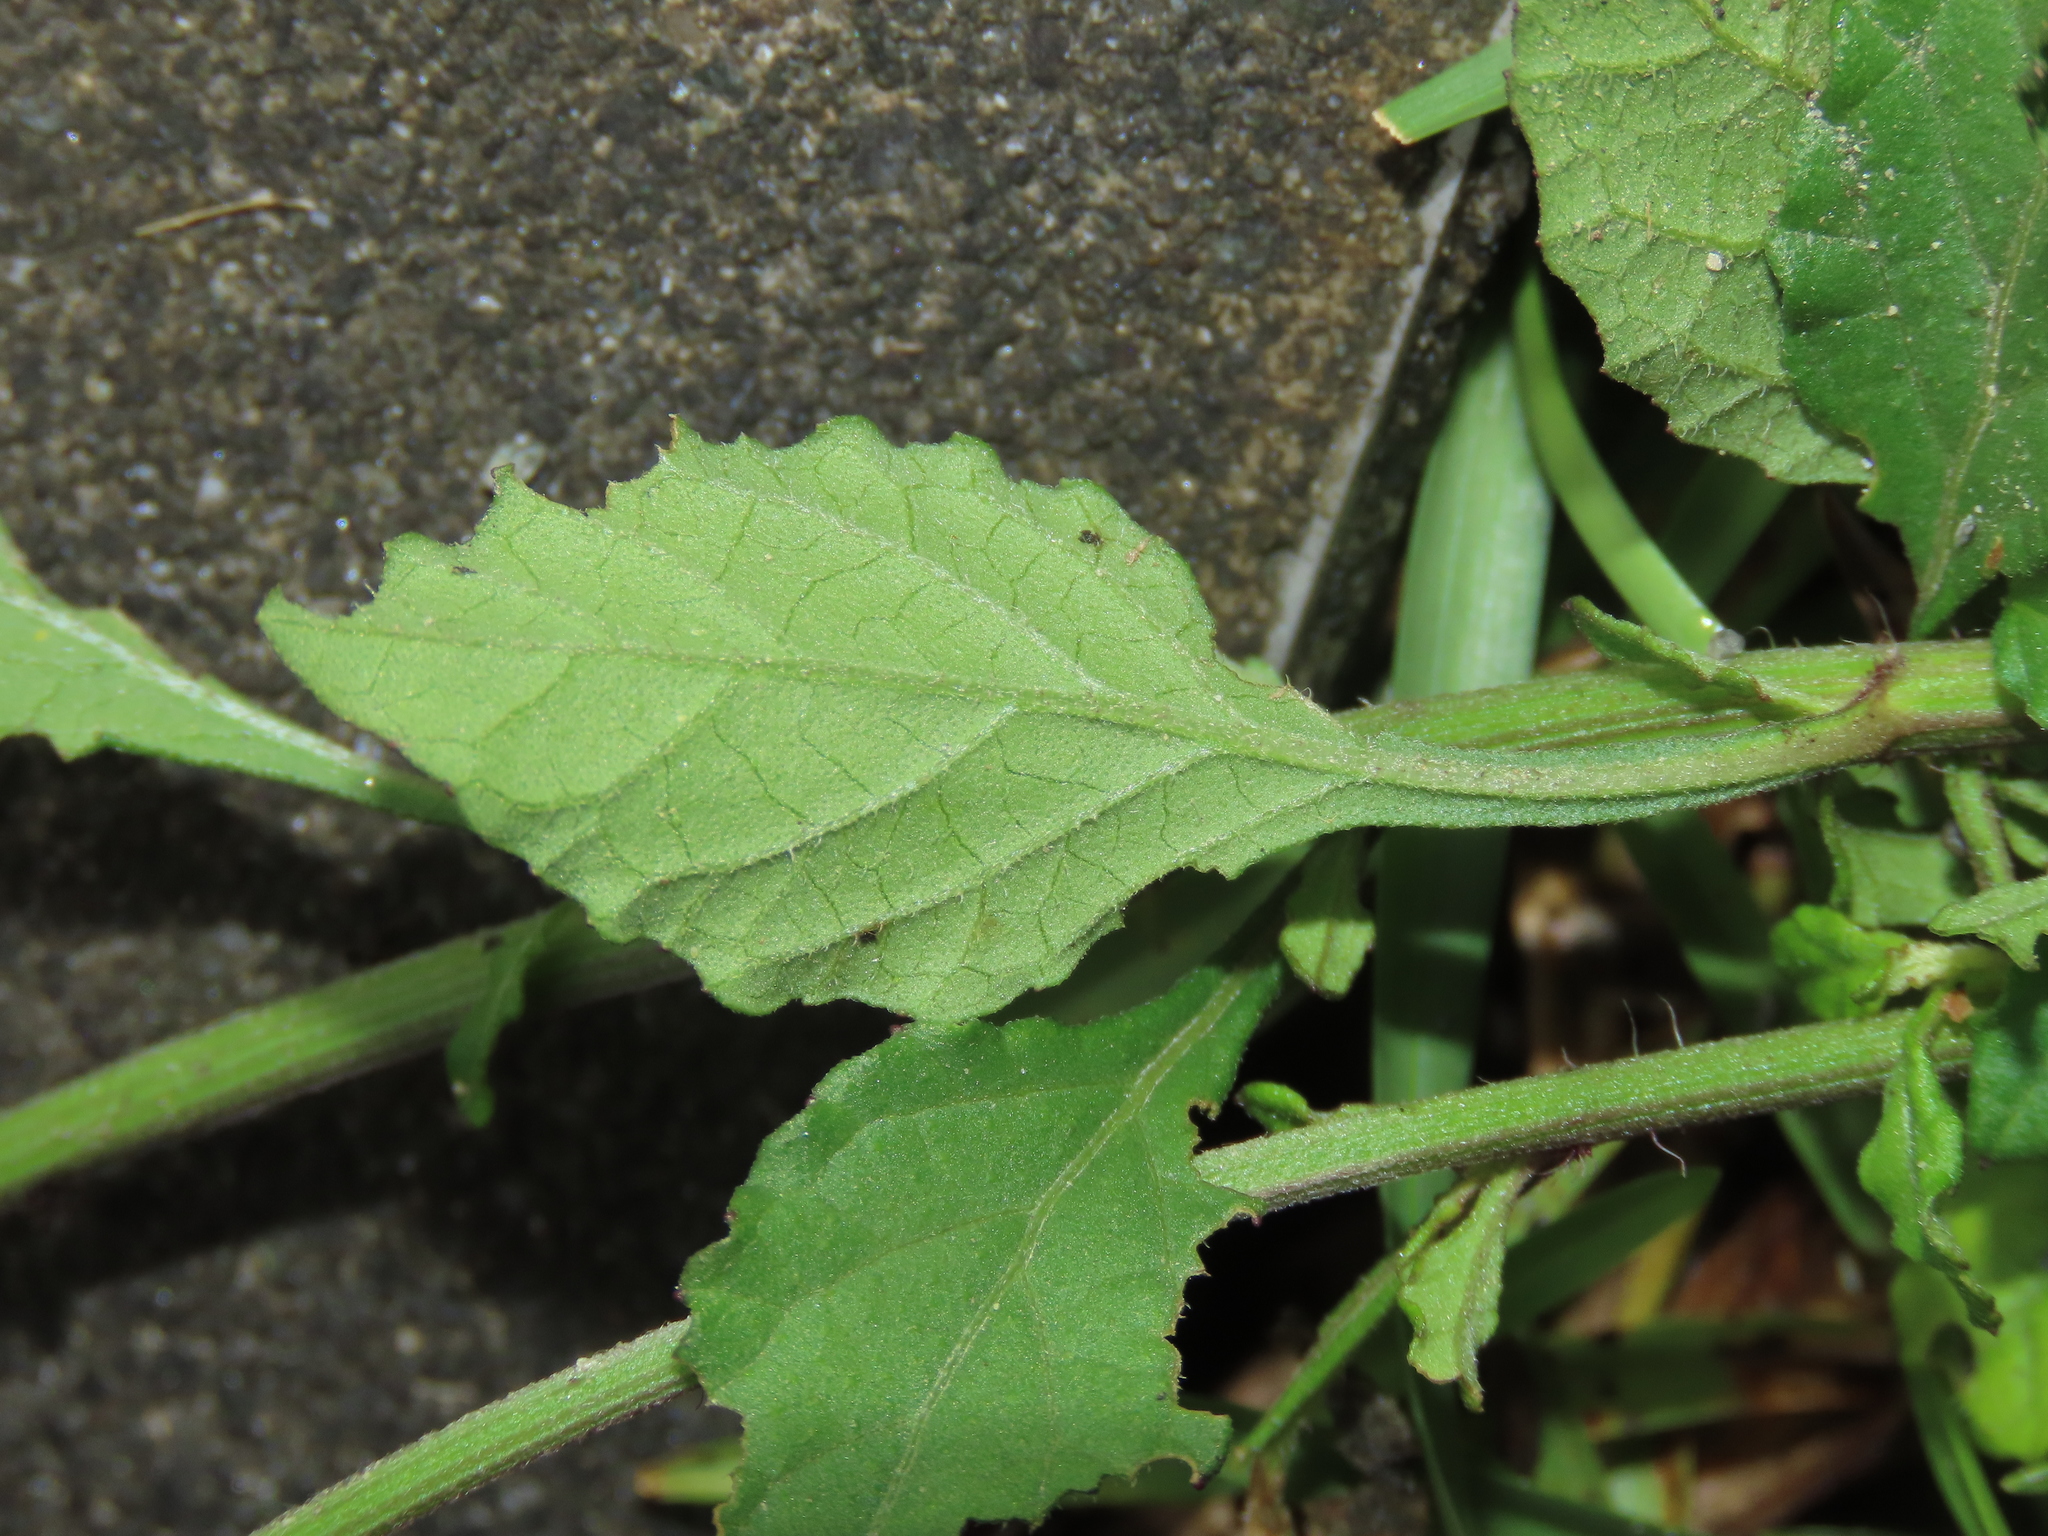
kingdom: Plantae
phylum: Tracheophyta
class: Magnoliopsida
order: Asterales
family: Asteraceae
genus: Cyanthillium
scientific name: Cyanthillium cinereum
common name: Little ironweed
